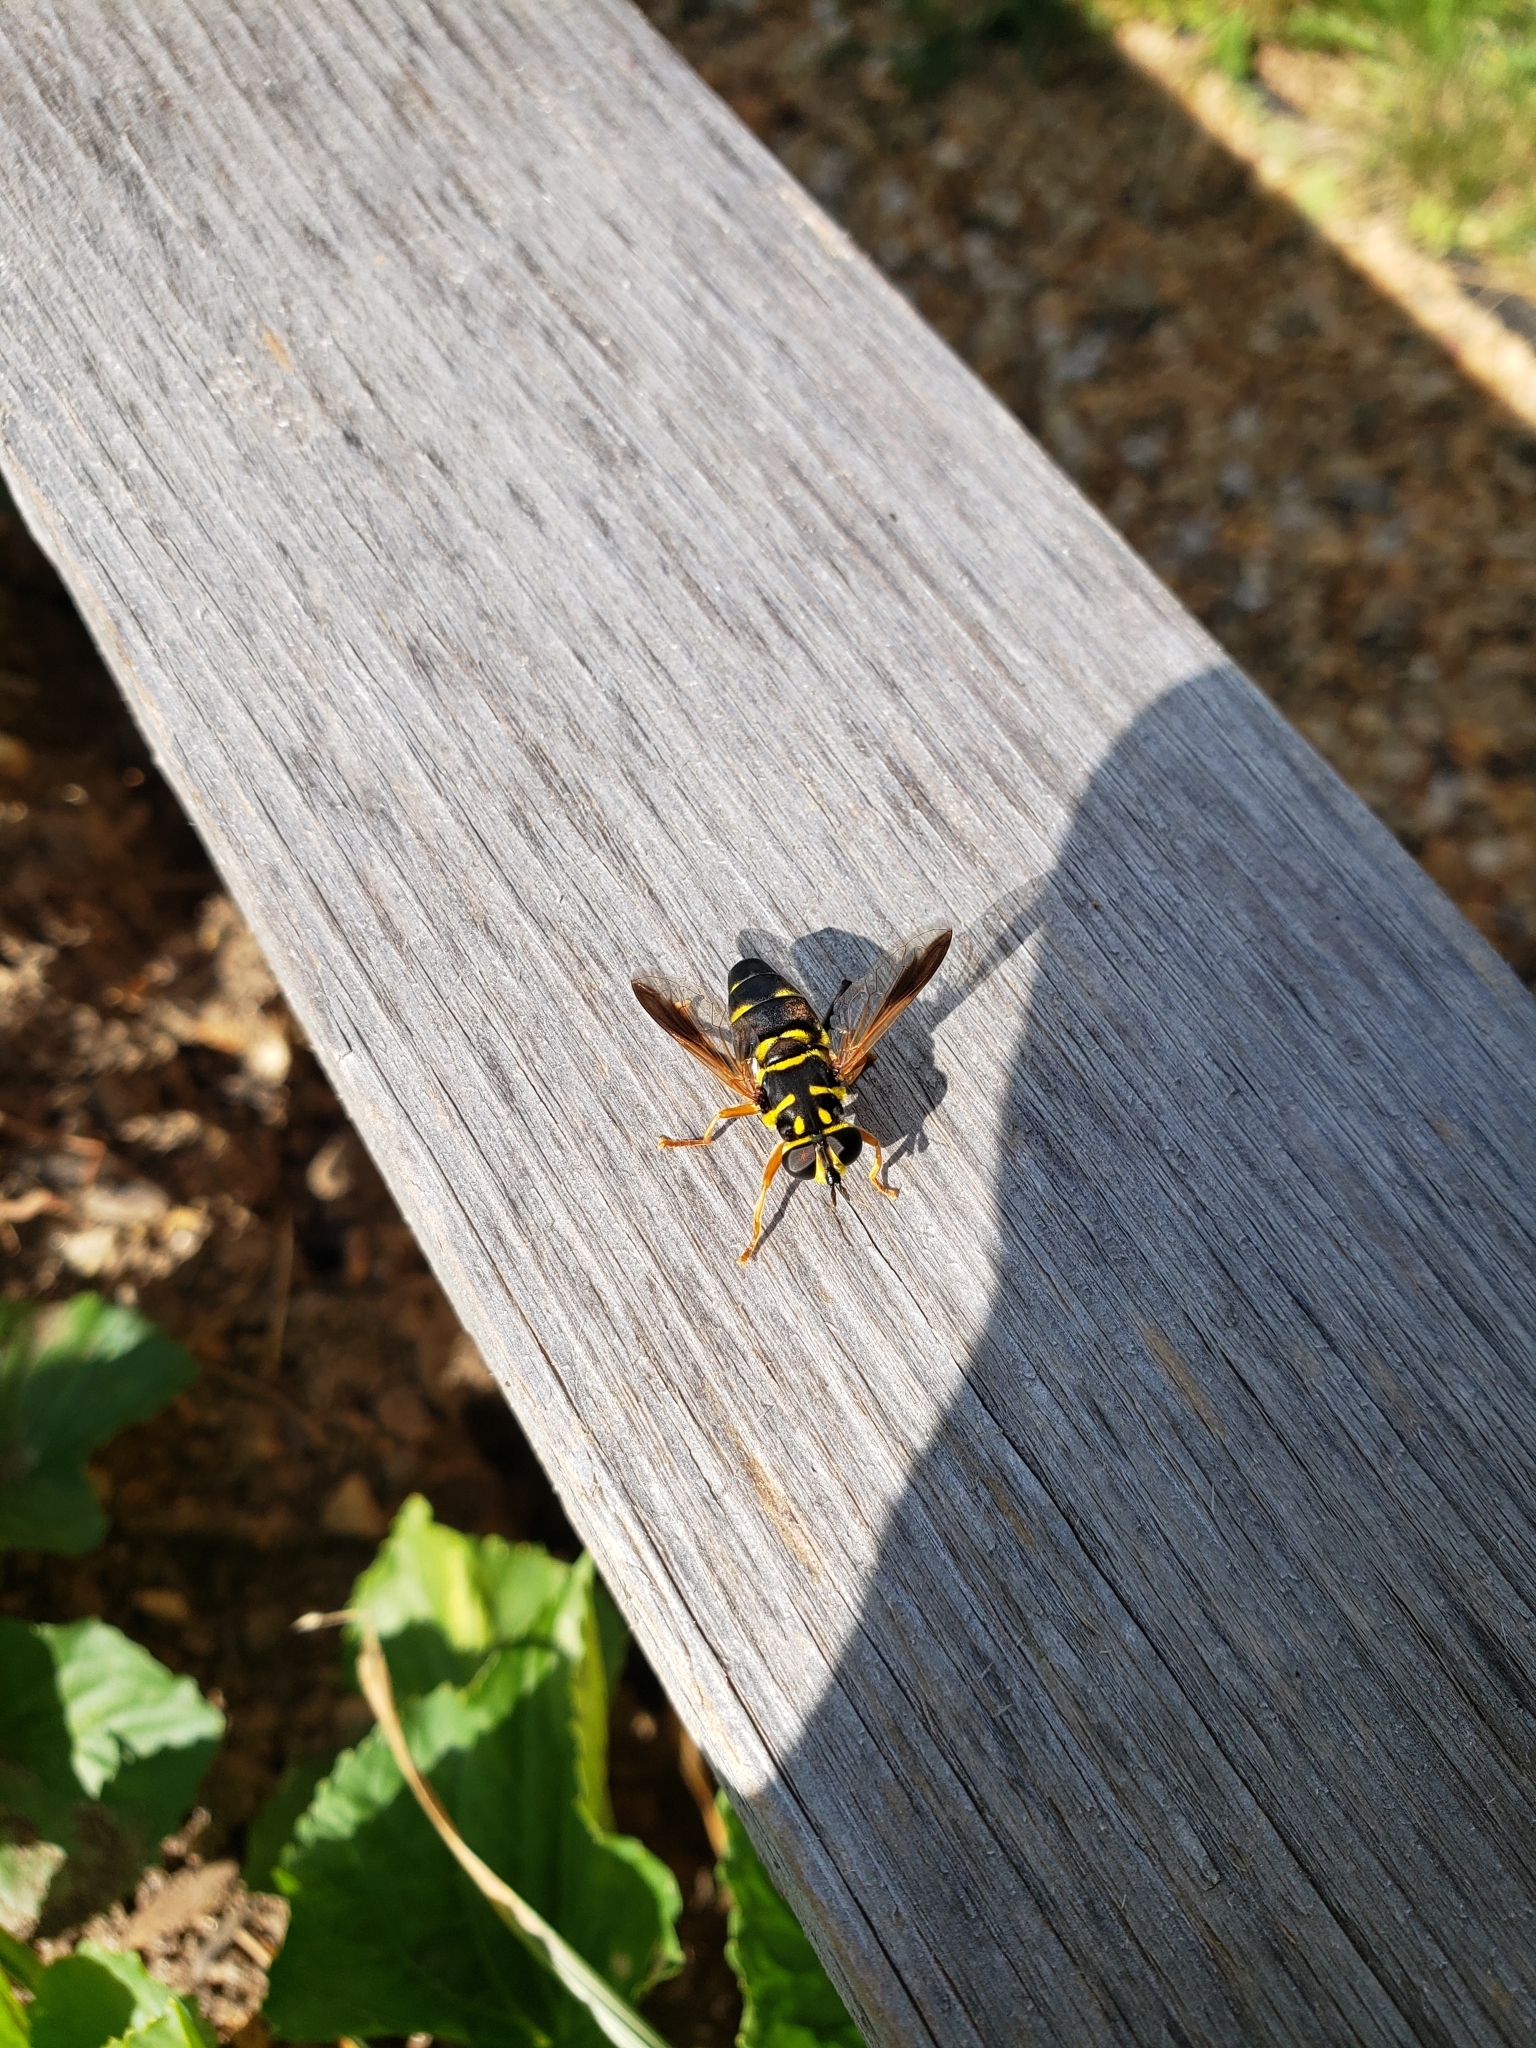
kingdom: Animalia
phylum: Arthropoda
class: Insecta
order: Diptera
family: Syrphidae
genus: Meromacrus
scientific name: Meromacrus acutus
